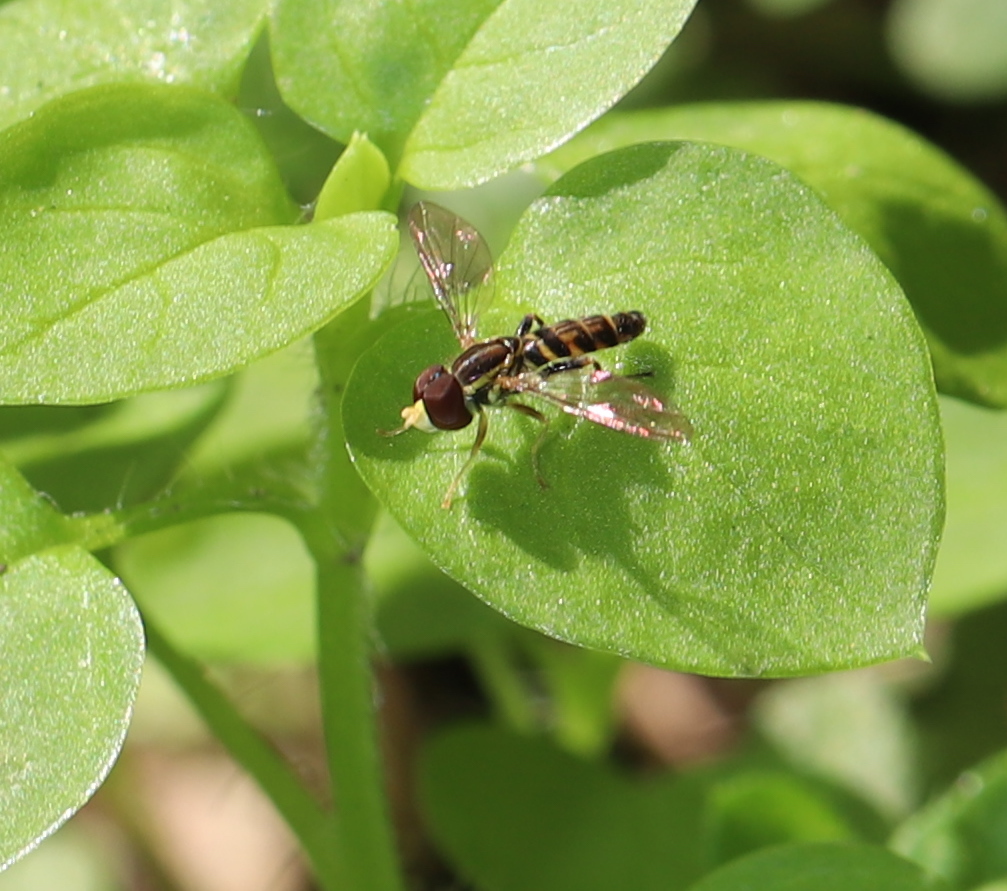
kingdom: Animalia
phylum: Arthropoda
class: Insecta
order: Diptera
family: Syrphidae
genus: Toxomerus
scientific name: Toxomerus geminatus
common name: Eastern calligrapher
